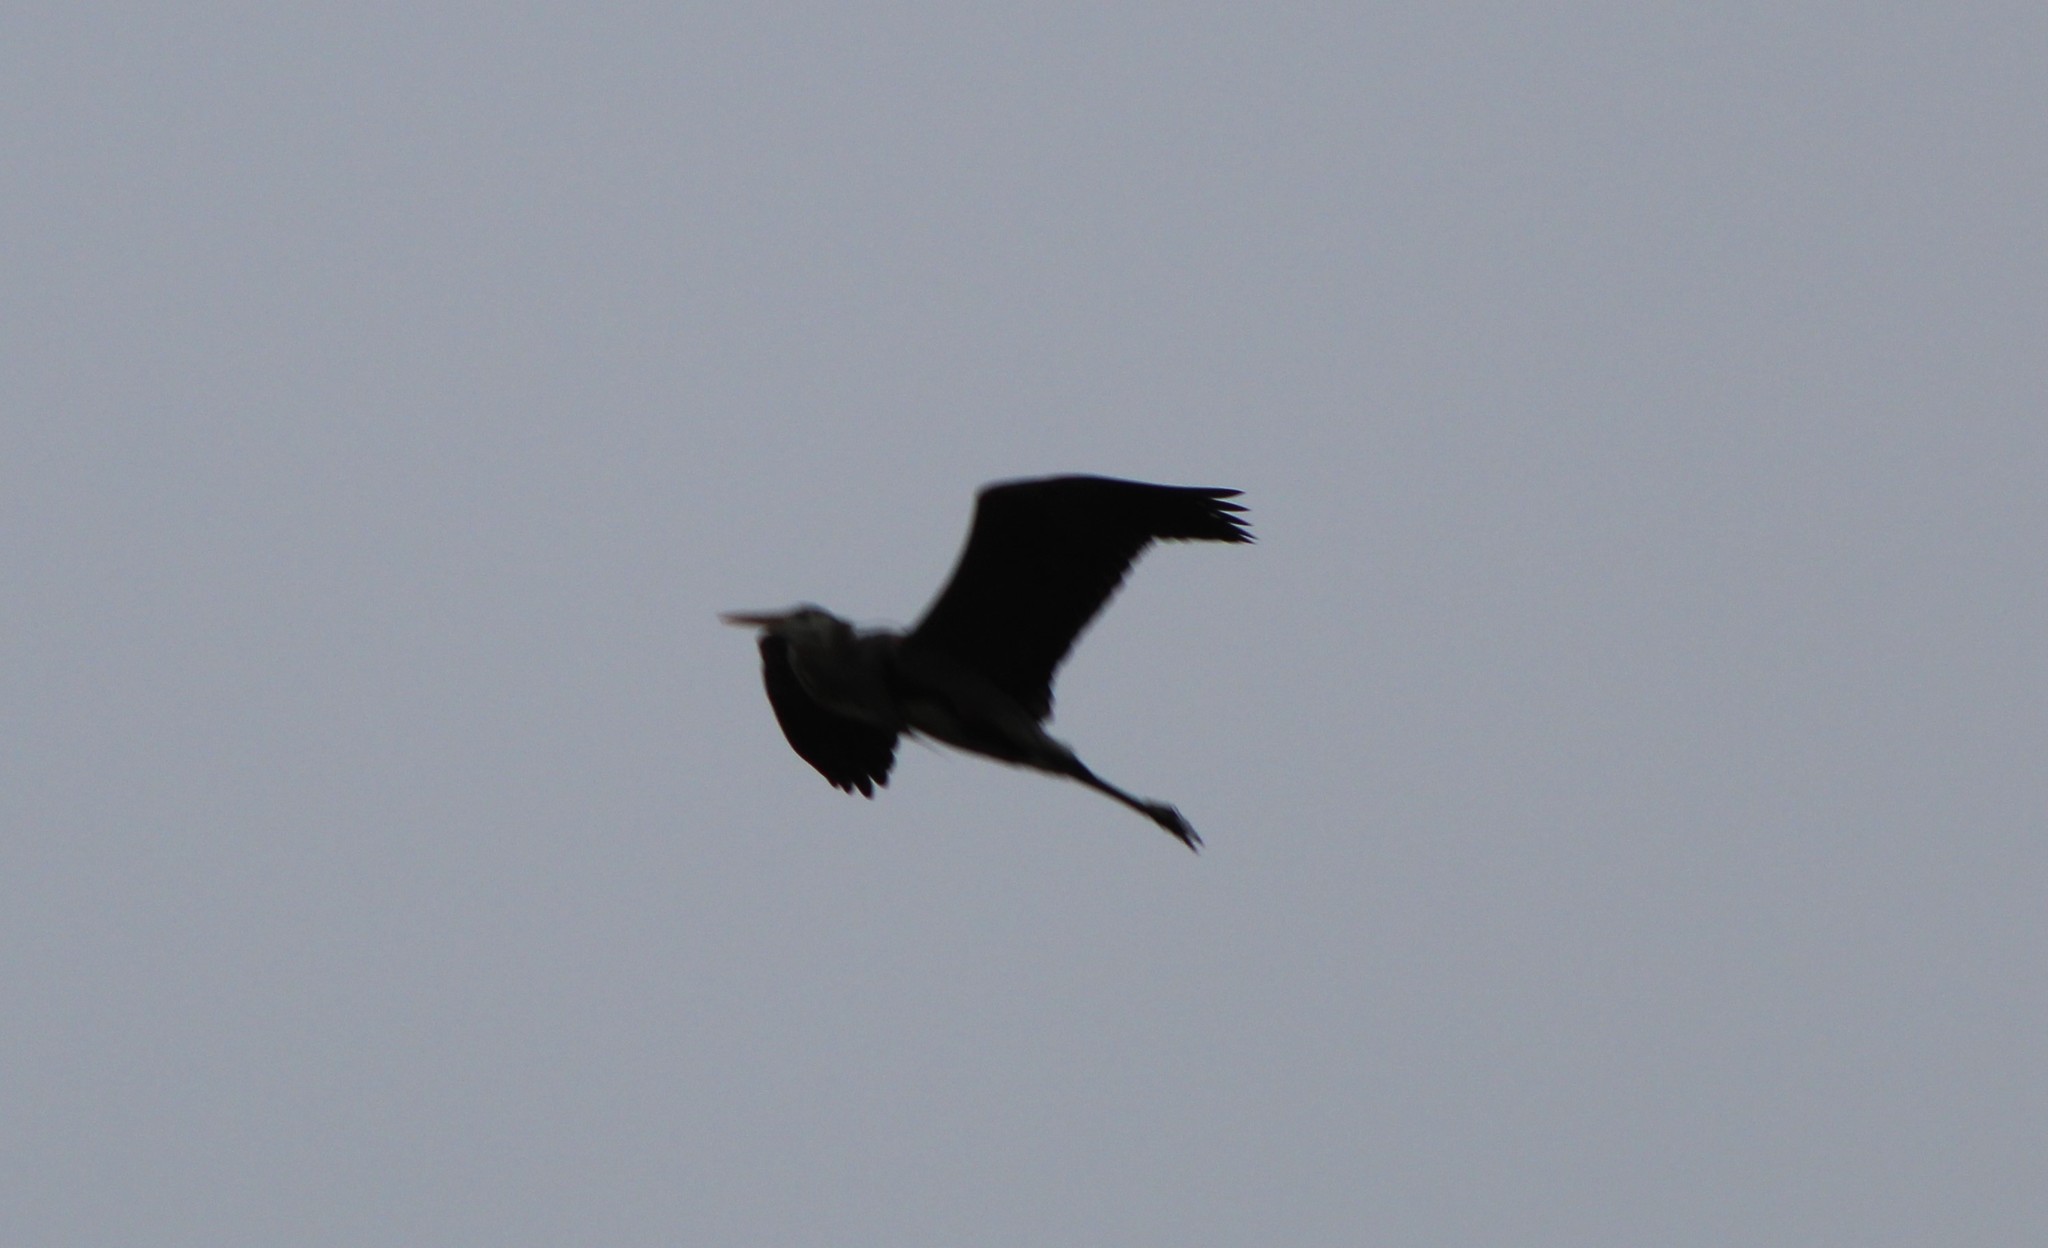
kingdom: Animalia
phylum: Chordata
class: Aves
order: Pelecaniformes
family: Ardeidae
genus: Ardea
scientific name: Ardea herodias
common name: Great blue heron
